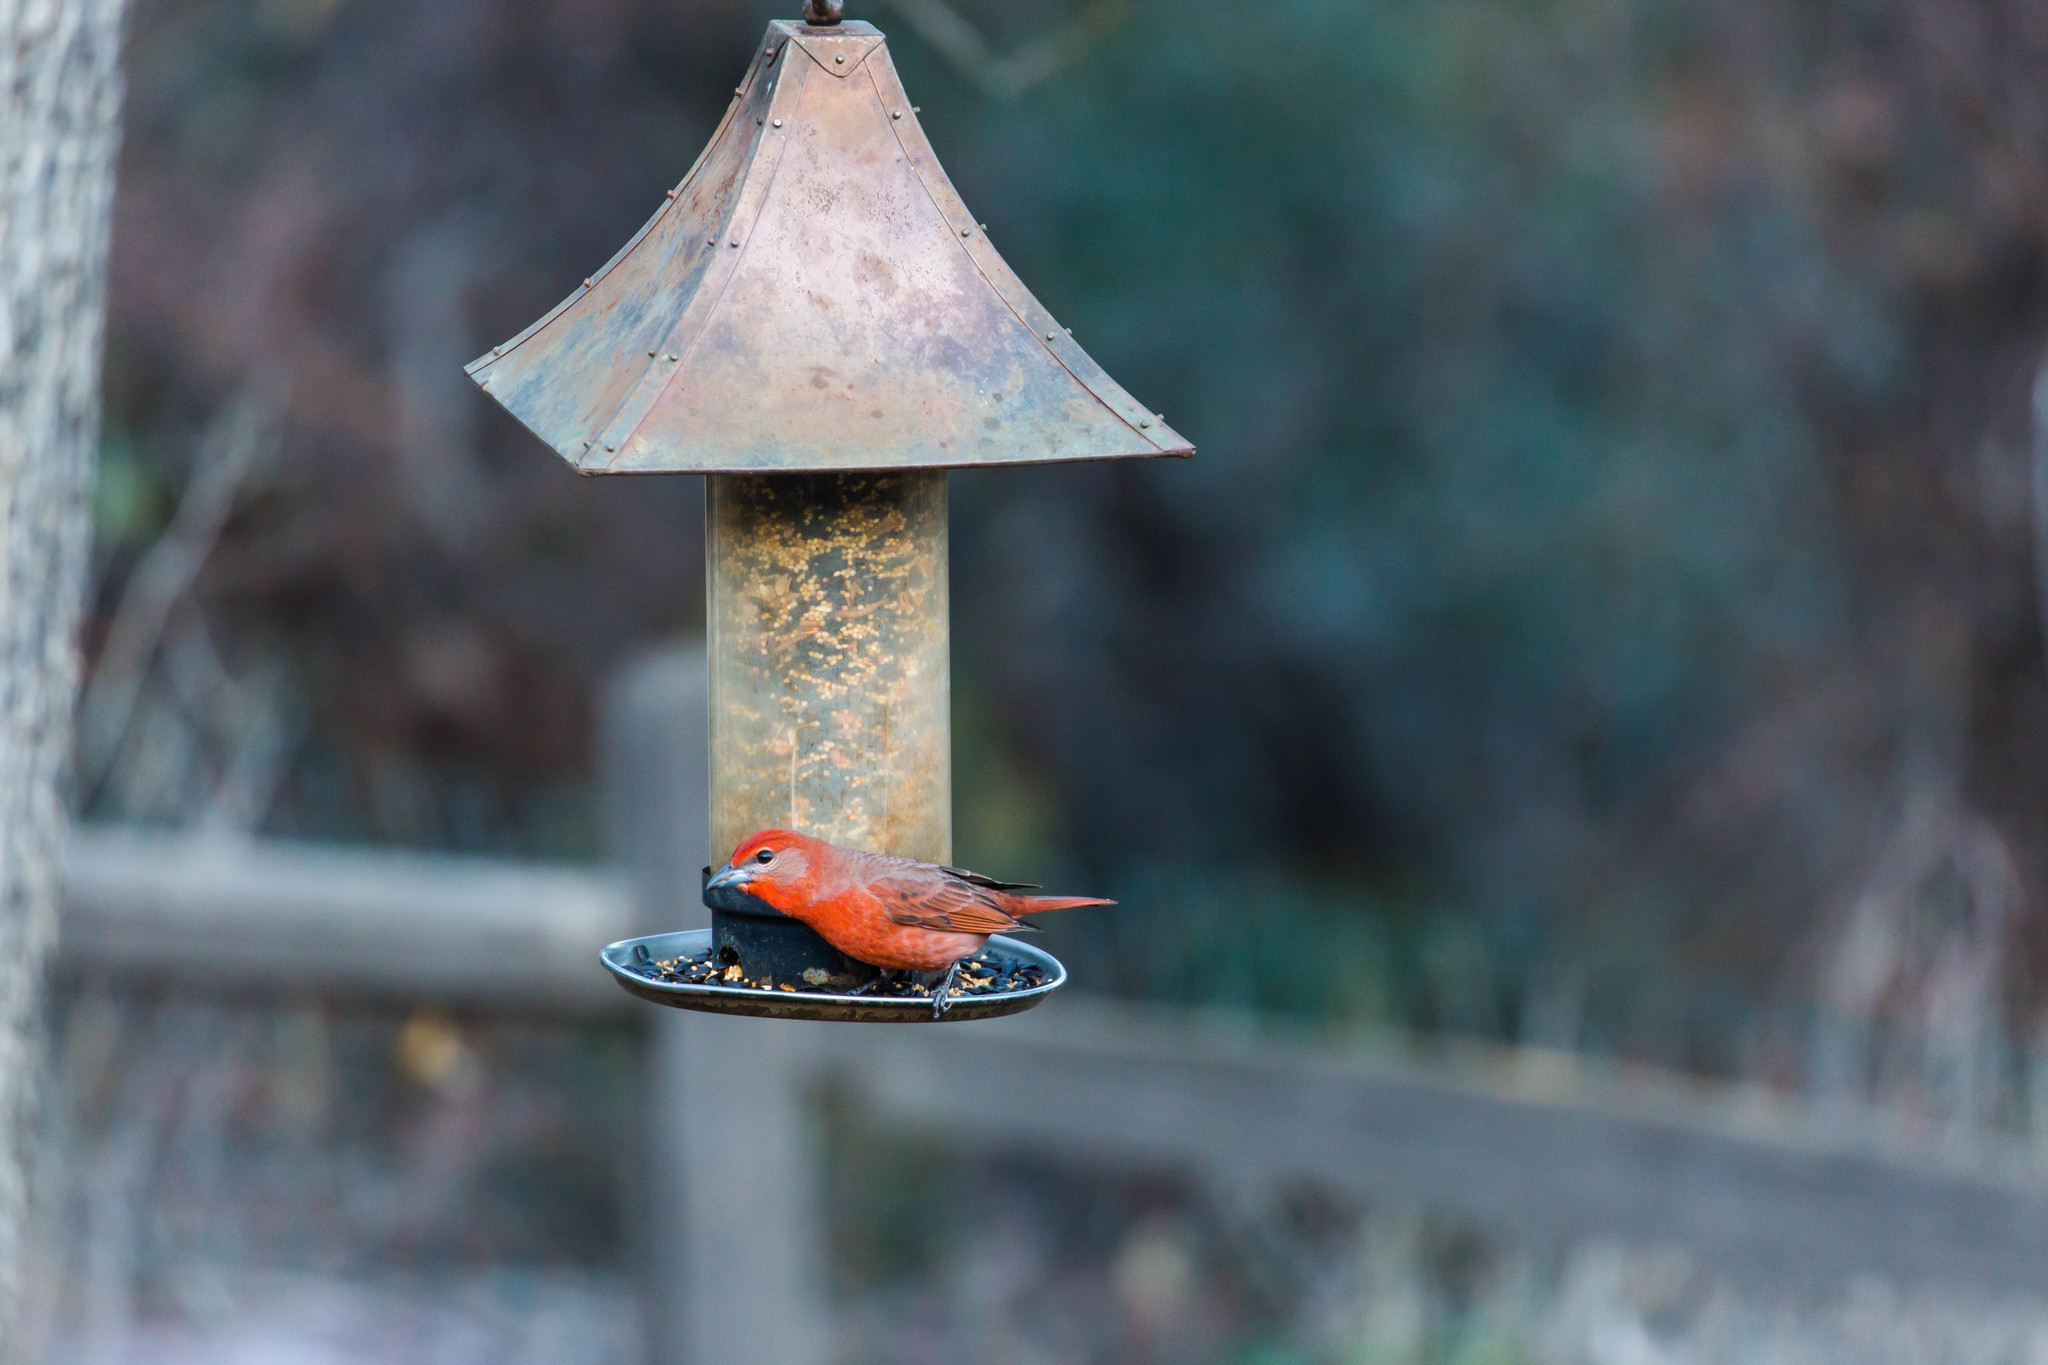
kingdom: Animalia
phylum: Chordata
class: Aves
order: Passeriformes
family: Cardinalidae
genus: Piranga
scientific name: Piranga flava
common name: Red tanager
